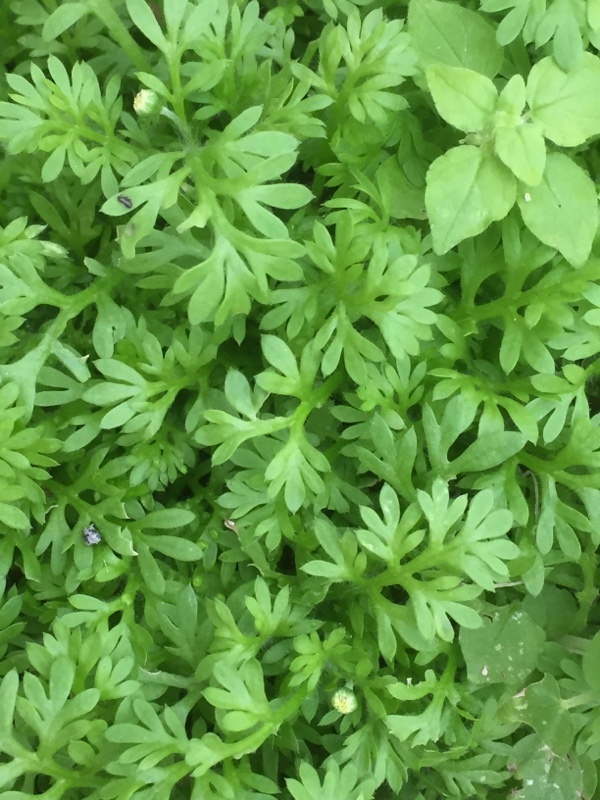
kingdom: Plantae
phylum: Tracheophyta
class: Magnoliopsida
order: Asterales
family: Asteraceae
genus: Cotula
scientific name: Cotula australis
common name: Australian waterbuttons
